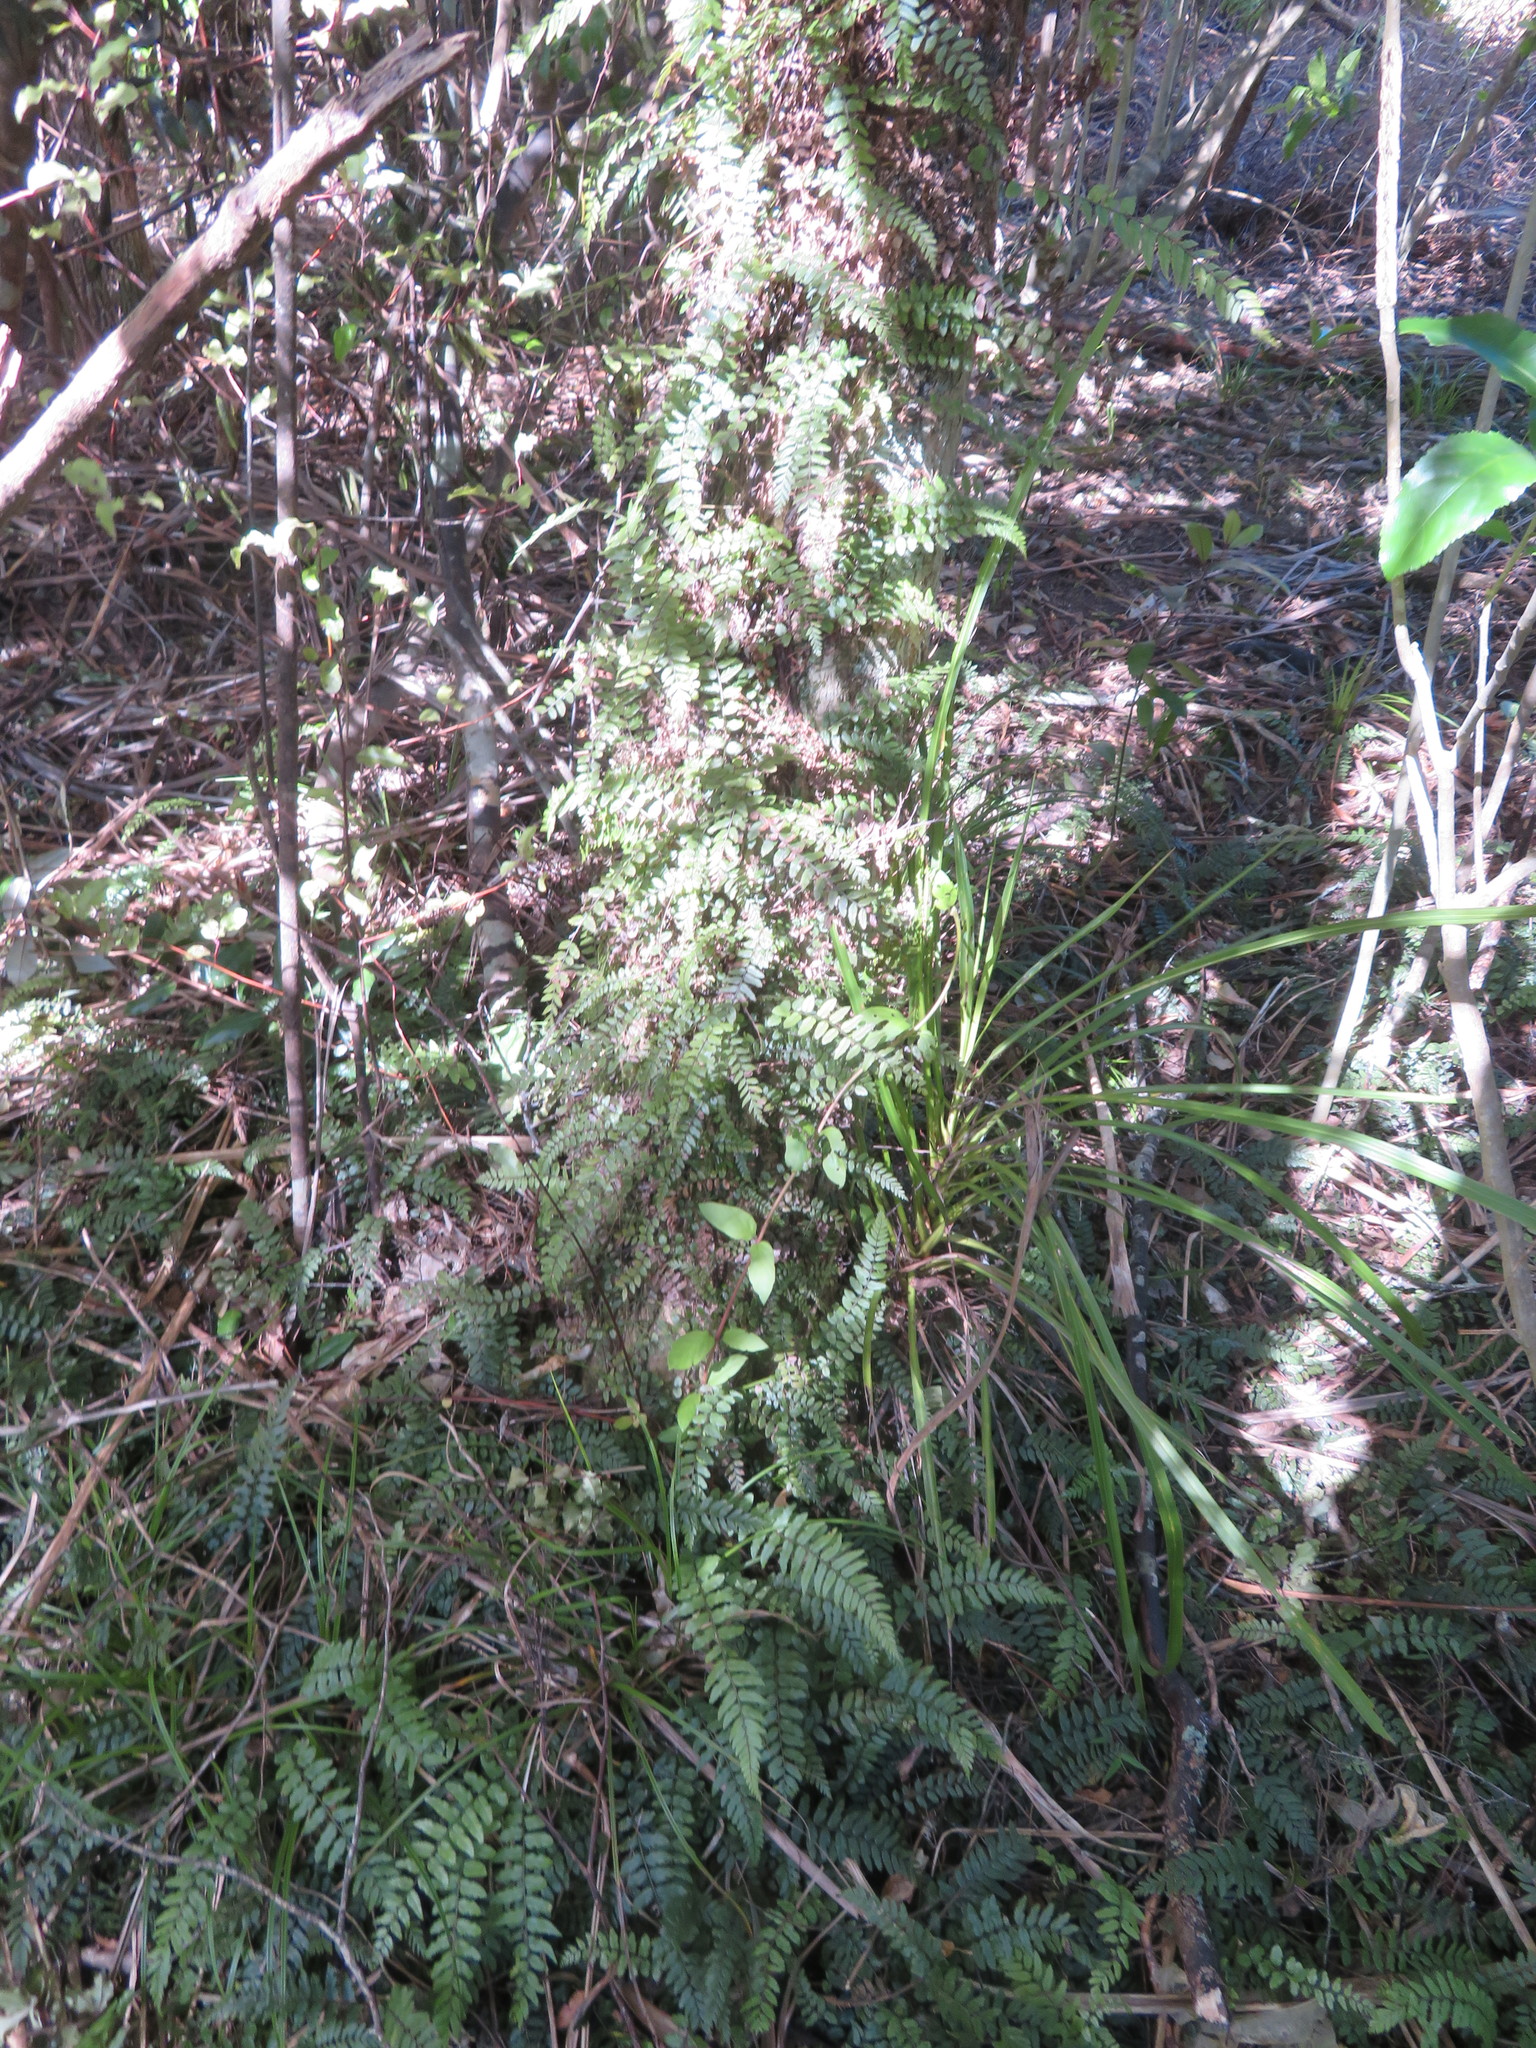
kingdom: Plantae
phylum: Tracheophyta
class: Liliopsida
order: Asparagales
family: Asparagaceae
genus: Cordyline
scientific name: Cordyline australis
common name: Cabbage-palm
